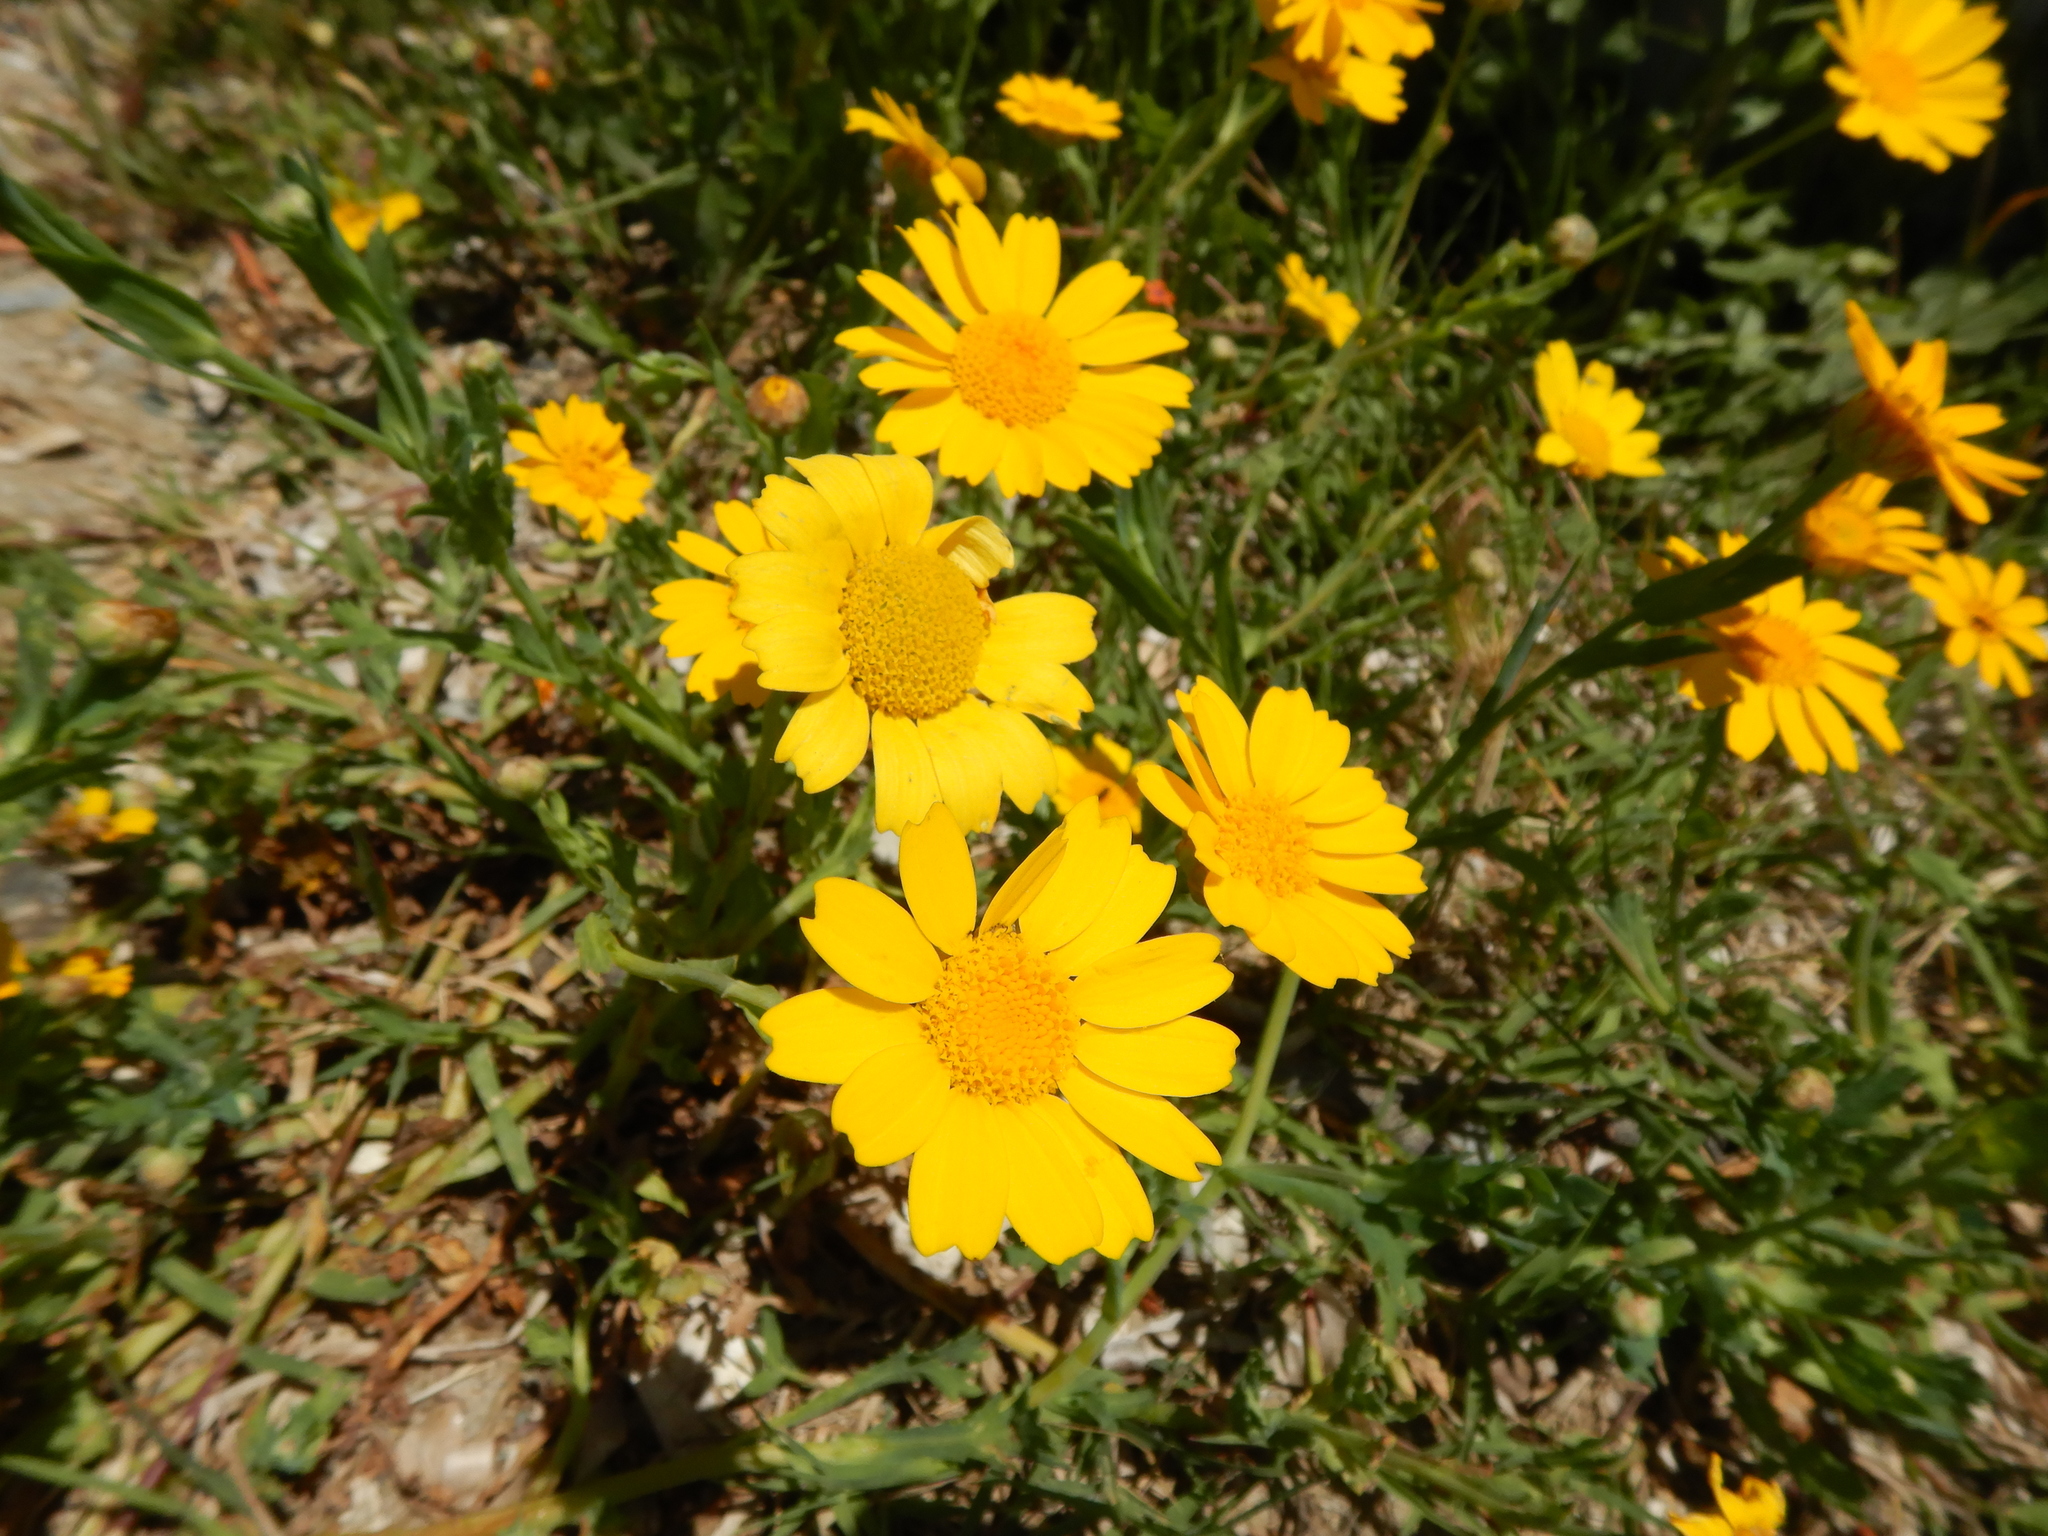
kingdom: Plantae
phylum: Tracheophyta
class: Magnoliopsida
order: Asterales
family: Asteraceae
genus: Glebionis
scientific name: Glebionis segetum
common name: Corndaisy
